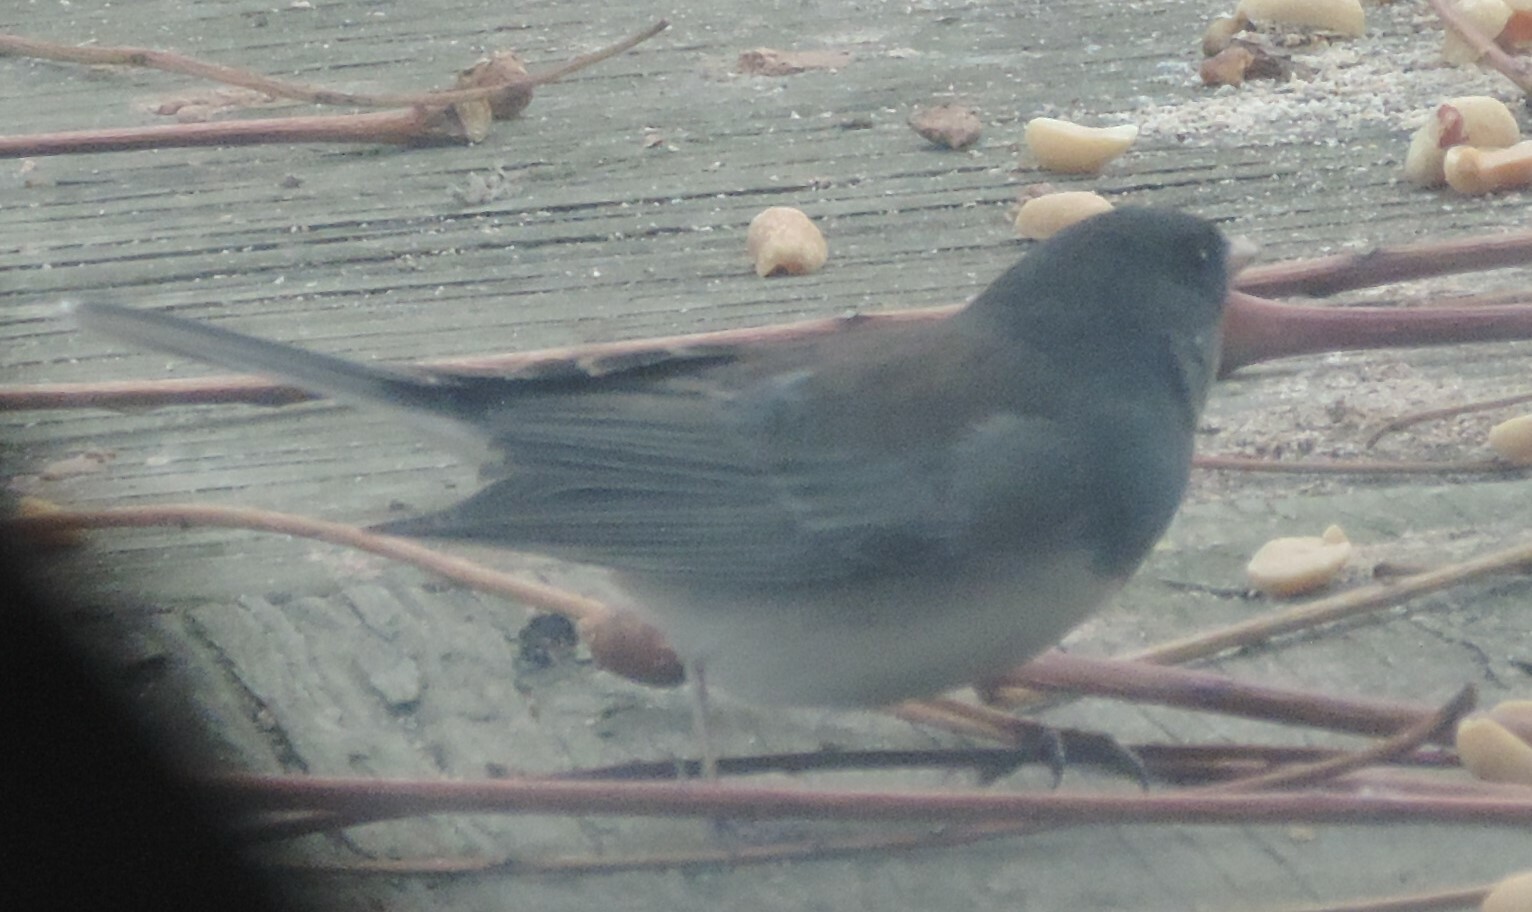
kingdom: Animalia
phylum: Chordata
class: Aves
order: Passeriformes
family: Passerellidae
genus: Junco
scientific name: Junco hyemalis
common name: Dark-eyed junco
